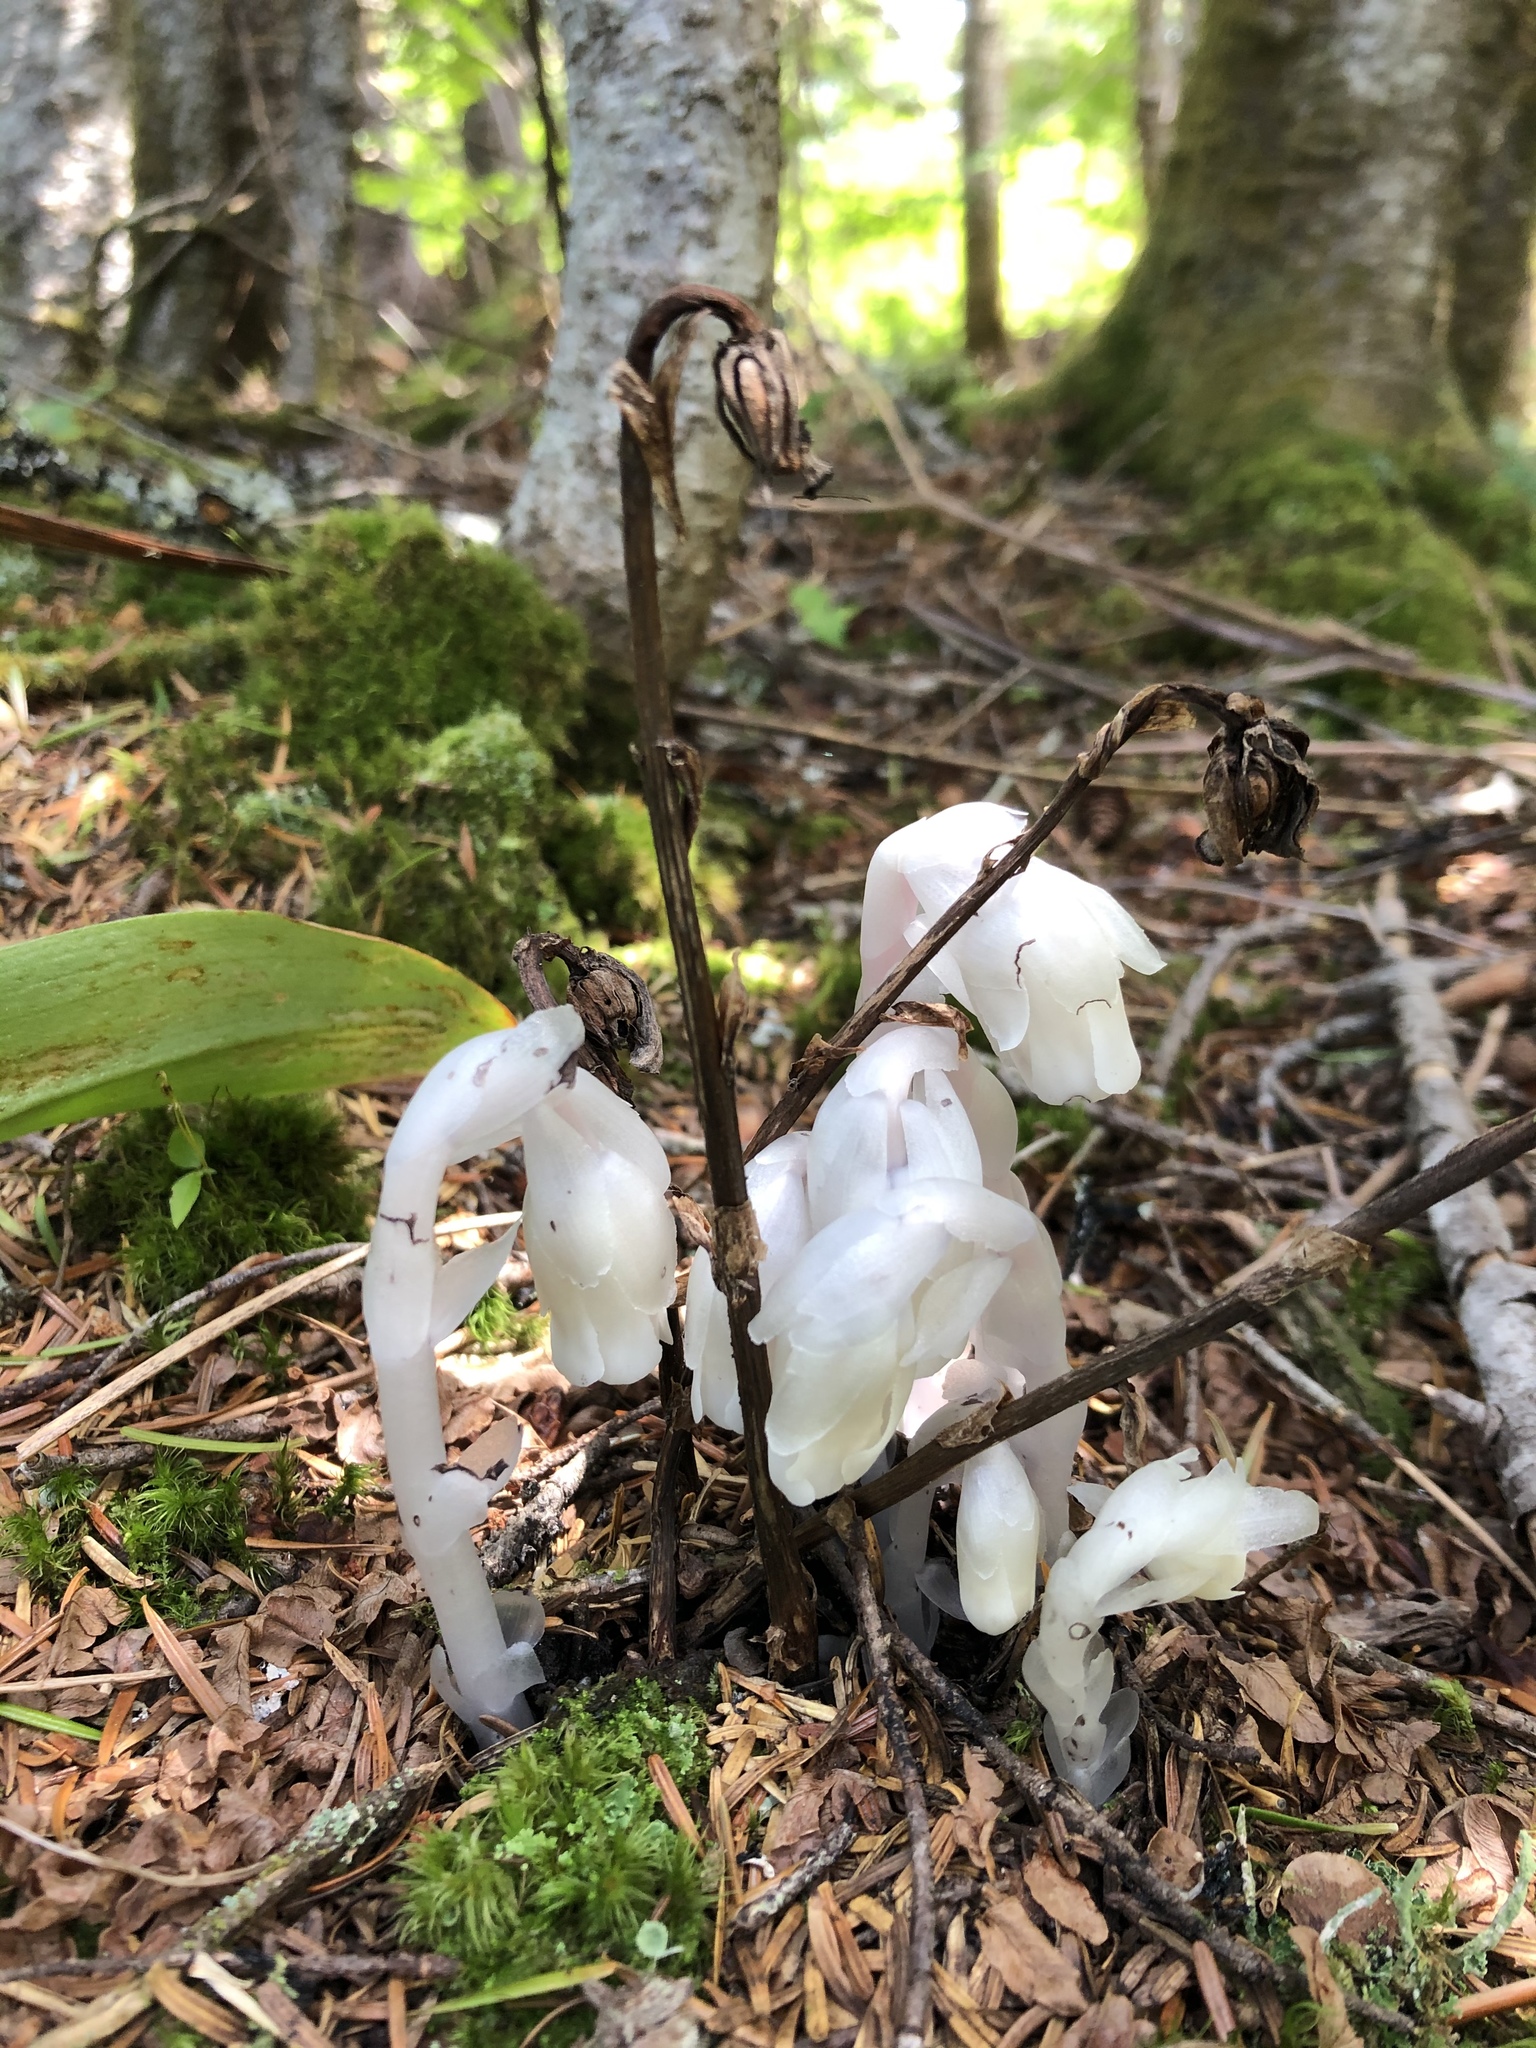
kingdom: Plantae
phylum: Tracheophyta
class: Magnoliopsida
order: Ericales
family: Ericaceae
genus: Monotropa
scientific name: Monotropa uniflora
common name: Convulsion root
